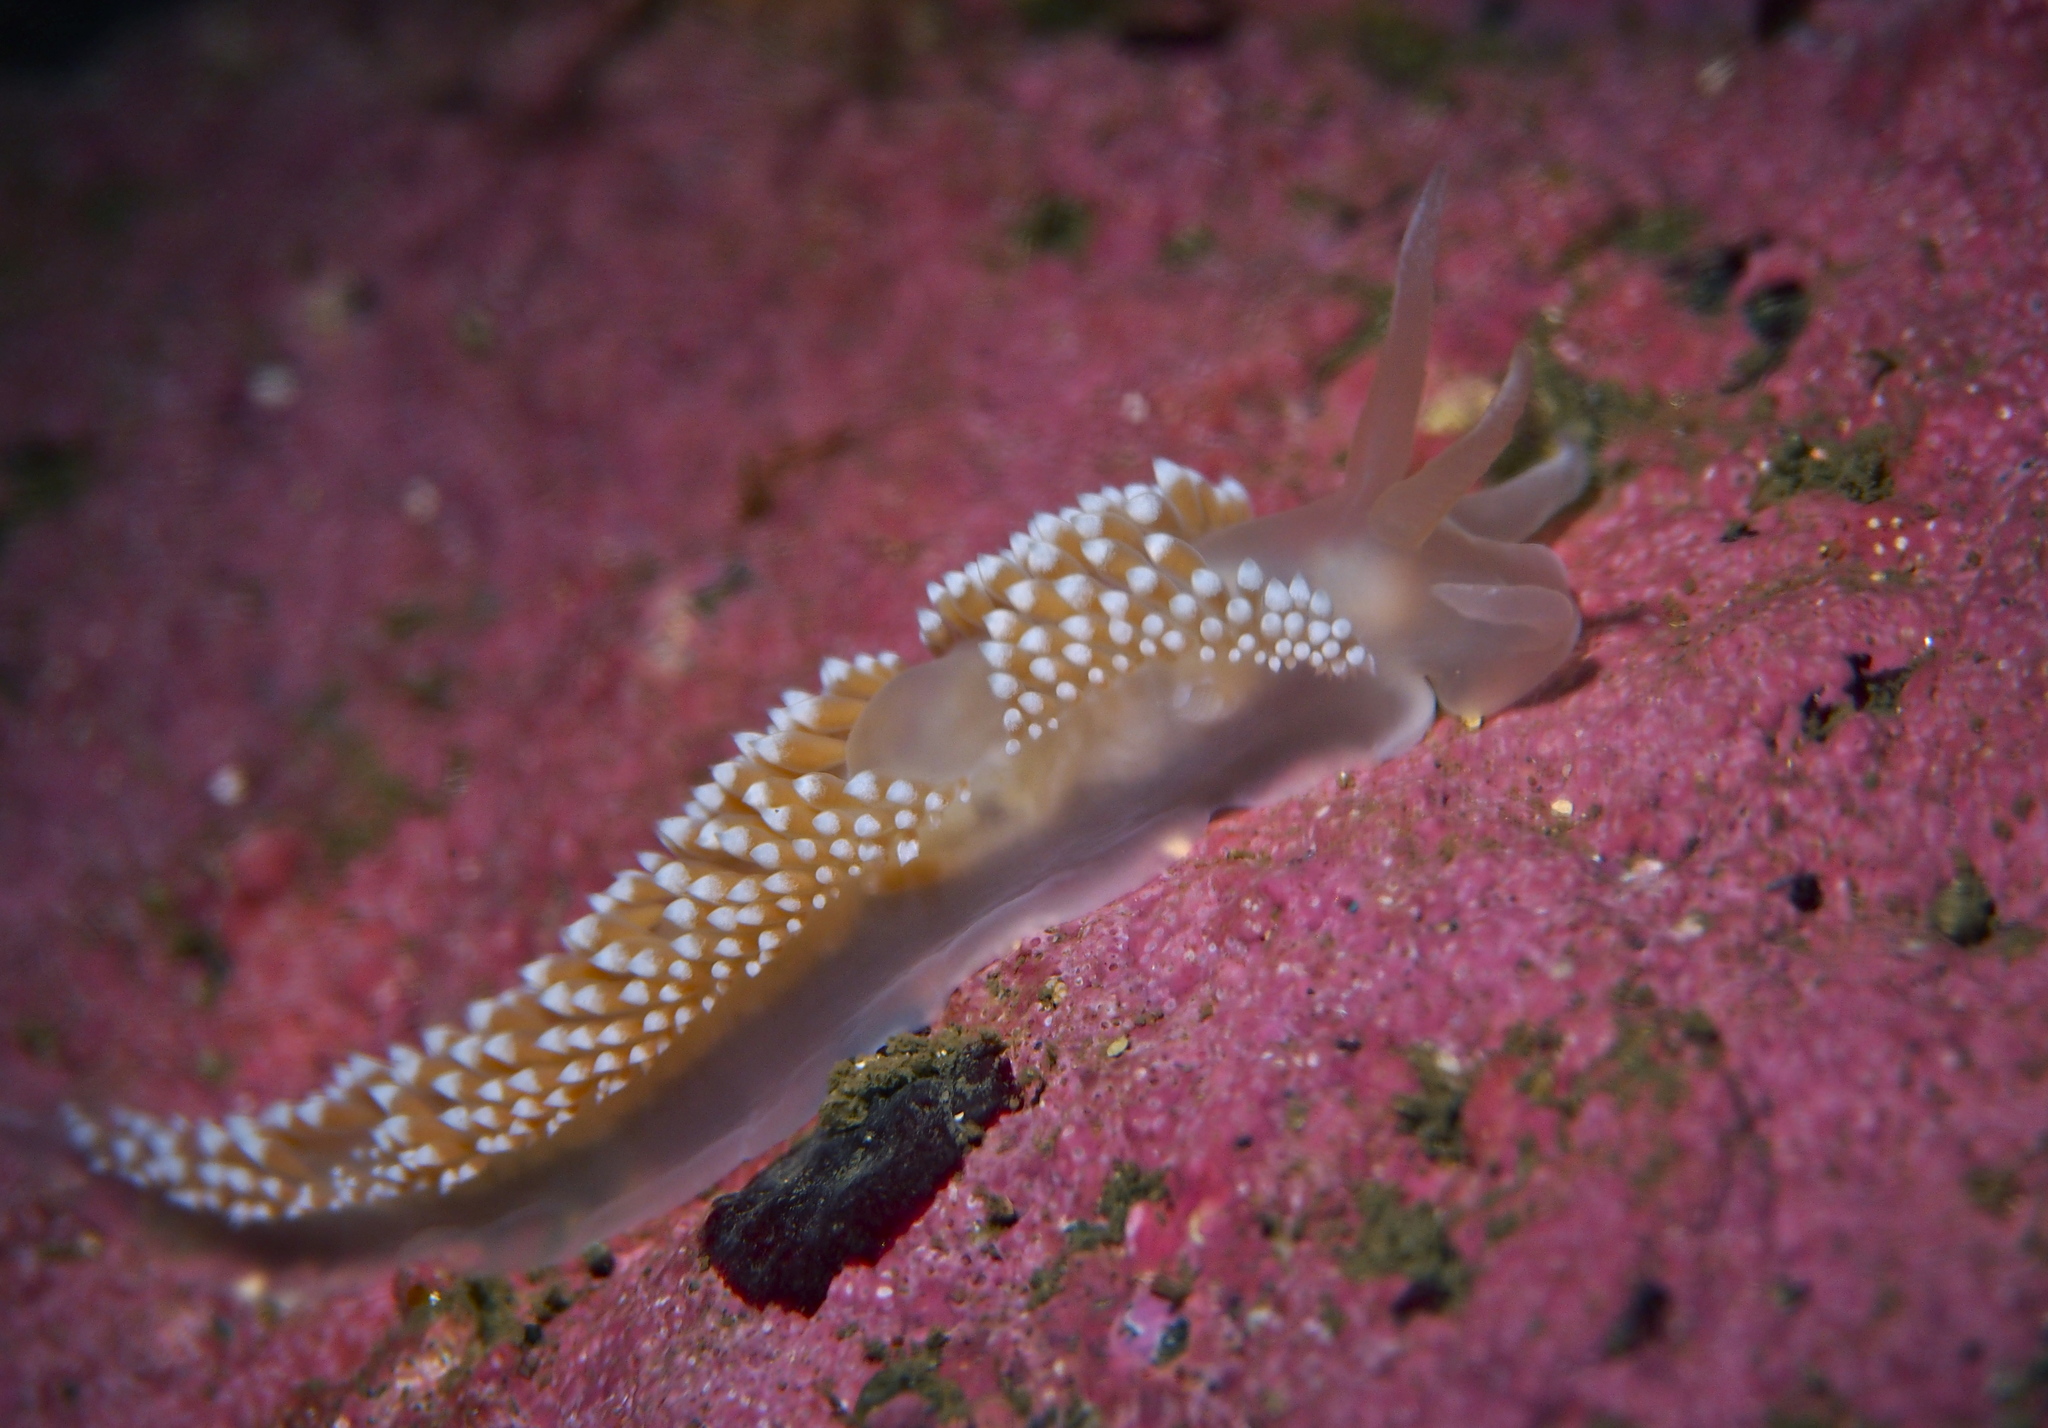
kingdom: Animalia
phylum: Mollusca
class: Gastropoda
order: Nudibranchia
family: Coryphellidae
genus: Coryphella
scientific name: Coryphella verrucosa
